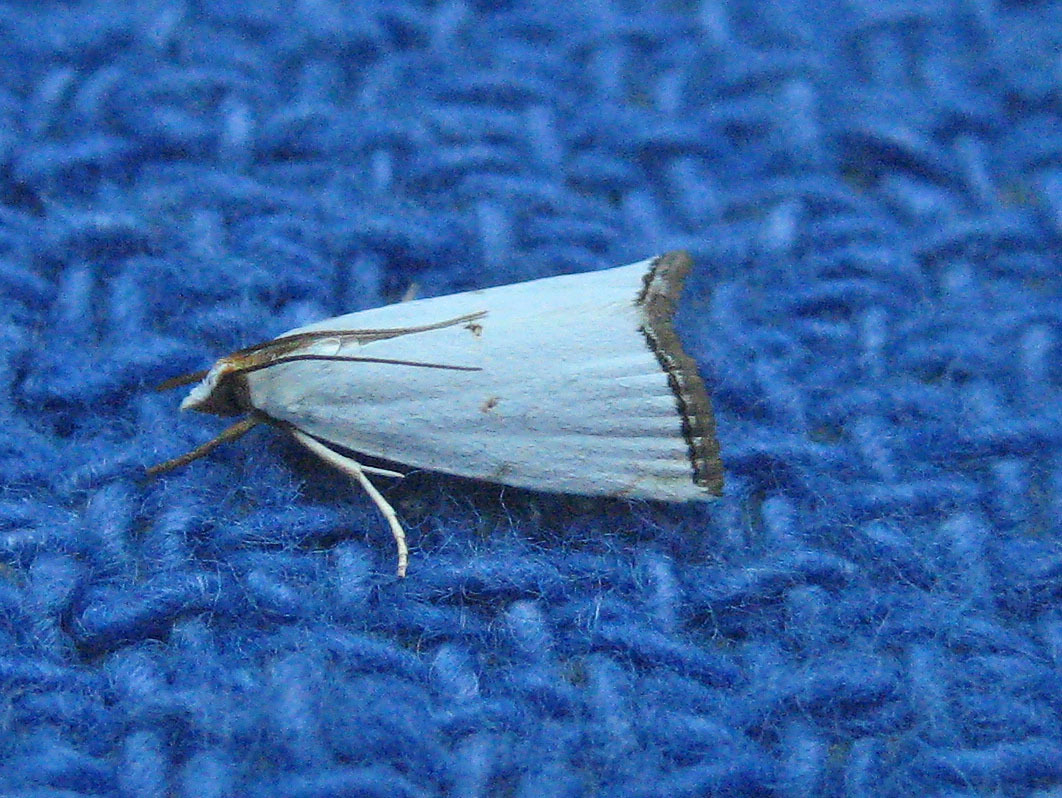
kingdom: Animalia
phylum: Arthropoda
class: Insecta
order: Lepidoptera
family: Crambidae
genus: Argyria
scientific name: Argyria pusillalis
